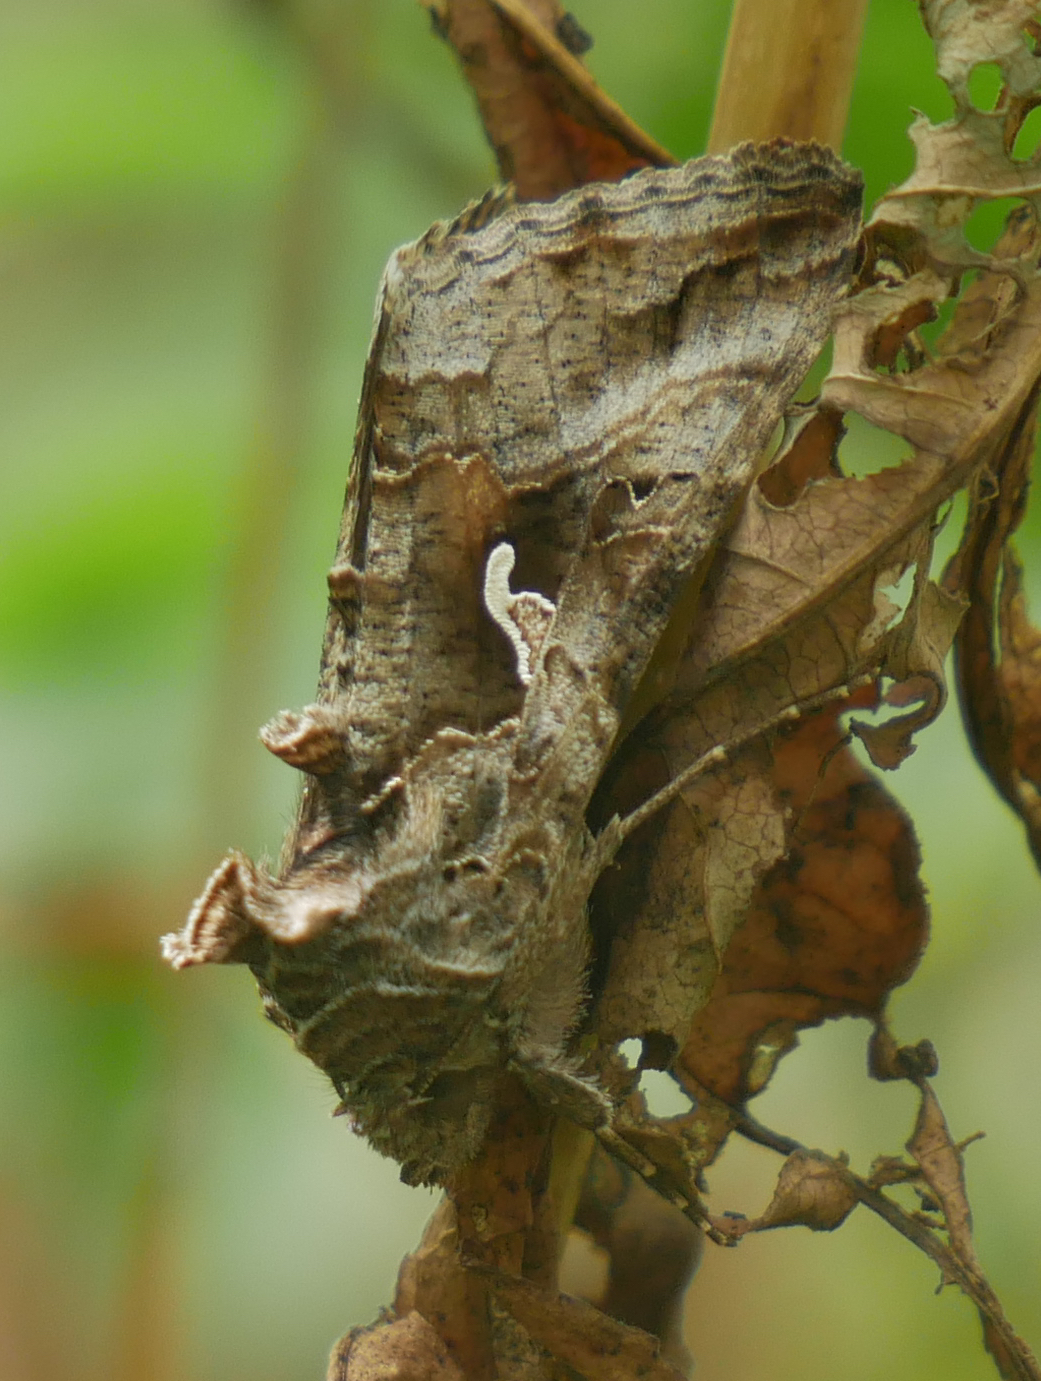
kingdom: Animalia
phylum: Arthropoda
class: Insecta
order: Lepidoptera
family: Noctuidae
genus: Autographa
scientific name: Autographa gamma
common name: Silver y
